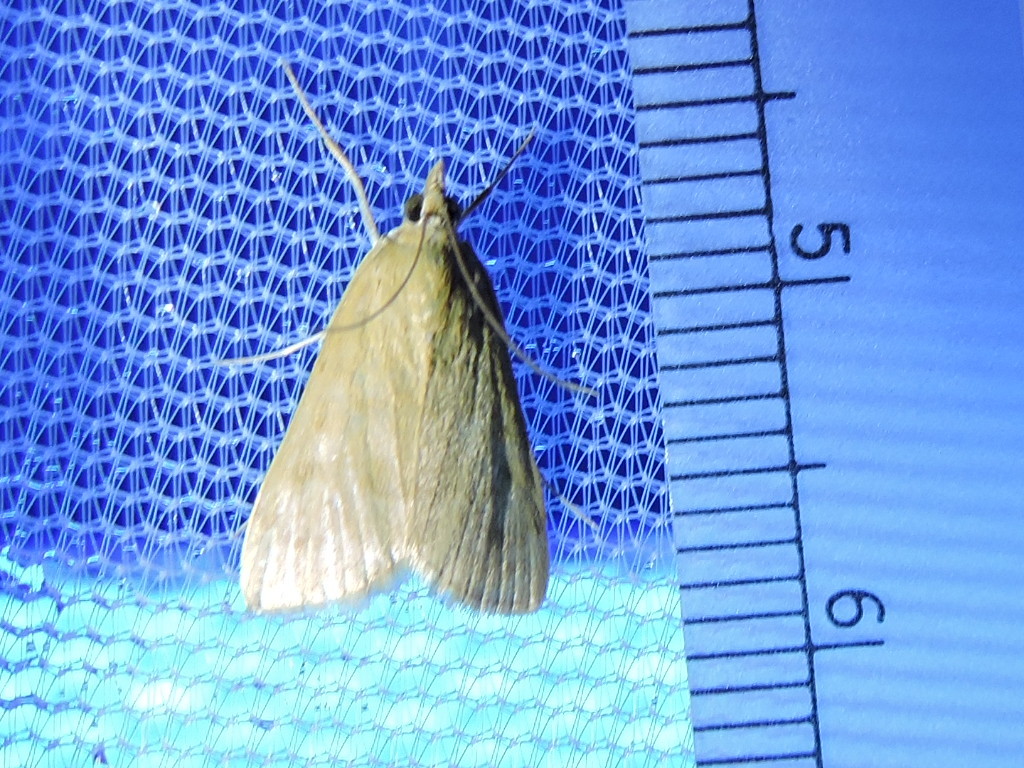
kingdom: Animalia
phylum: Arthropoda
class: Insecta
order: Lepidoptera
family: Crambidae
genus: Achyra
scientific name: Achyra rantalis
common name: Garden webworm
